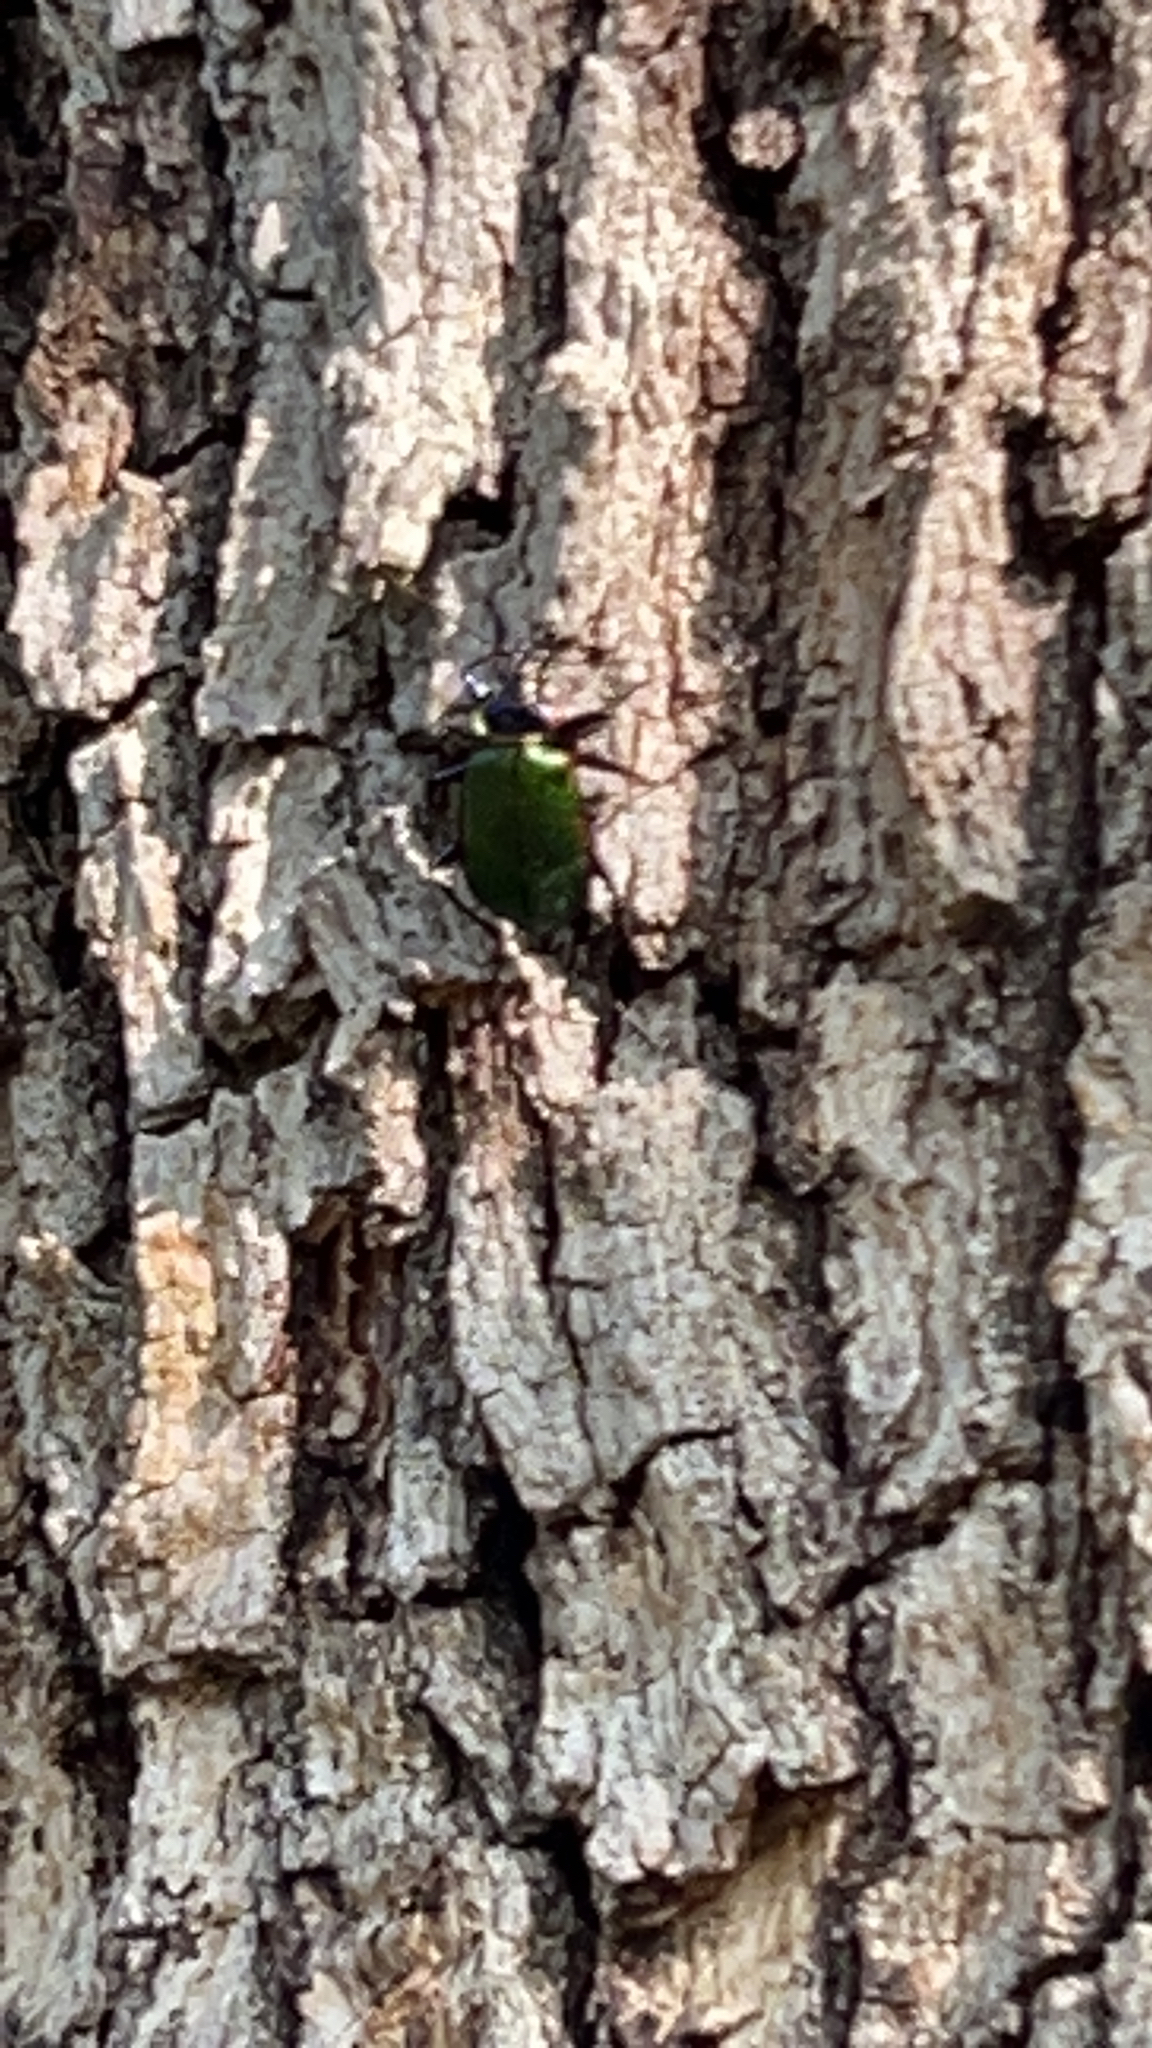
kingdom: Animalia
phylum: Arthropoda
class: Insecta
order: Coleoptera
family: Carabidae
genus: Calosoma
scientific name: Calosoma scrutator
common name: Fiery searcher beetle
